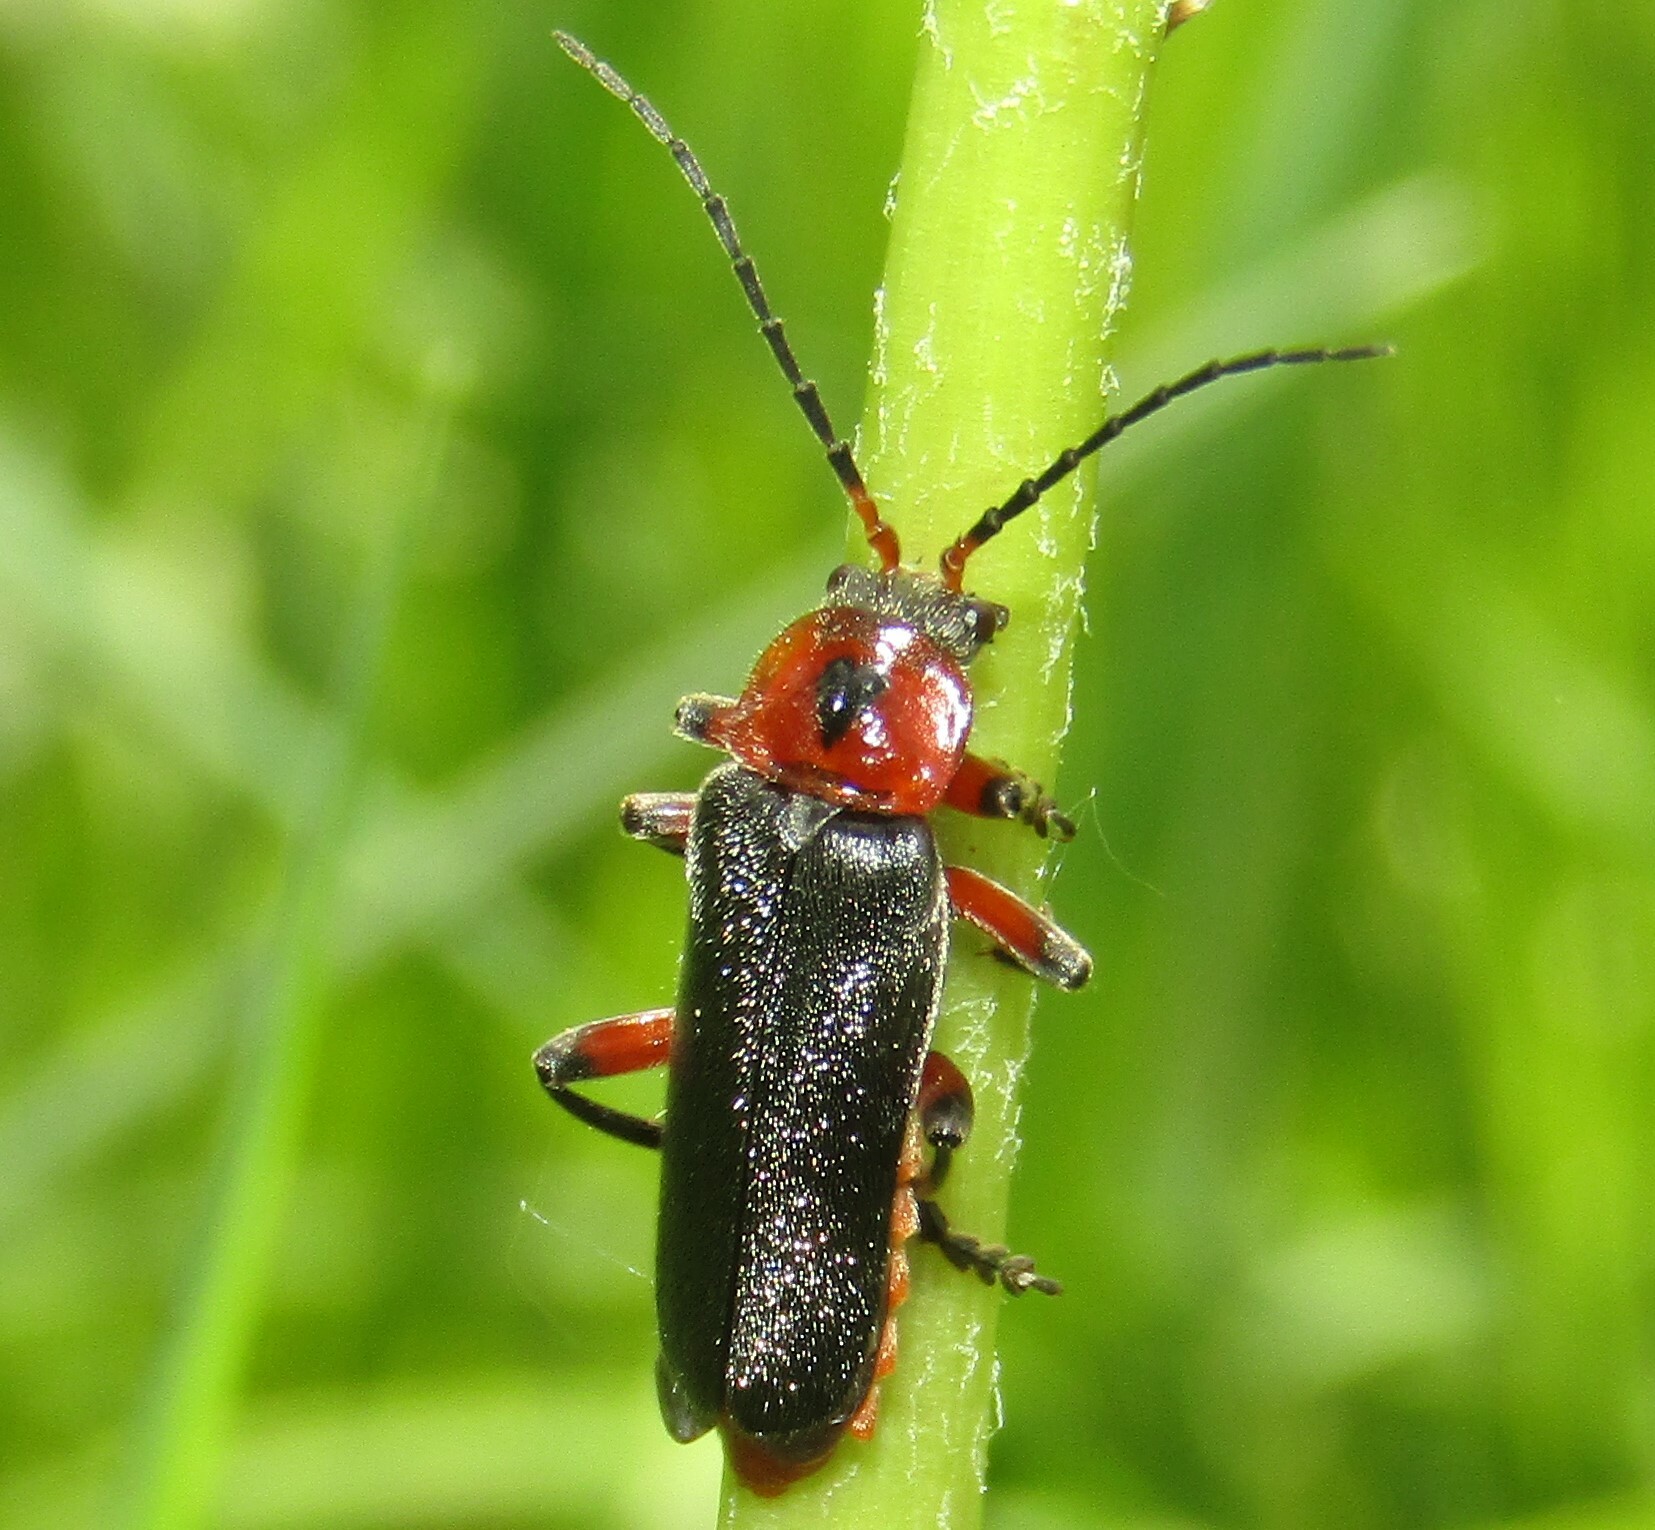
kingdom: Animalia
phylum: Arthropoda
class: Insecta
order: Coleoptera
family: Cantharidae
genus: Cantharis
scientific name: Cantharis rustica
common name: Soldier beetle
